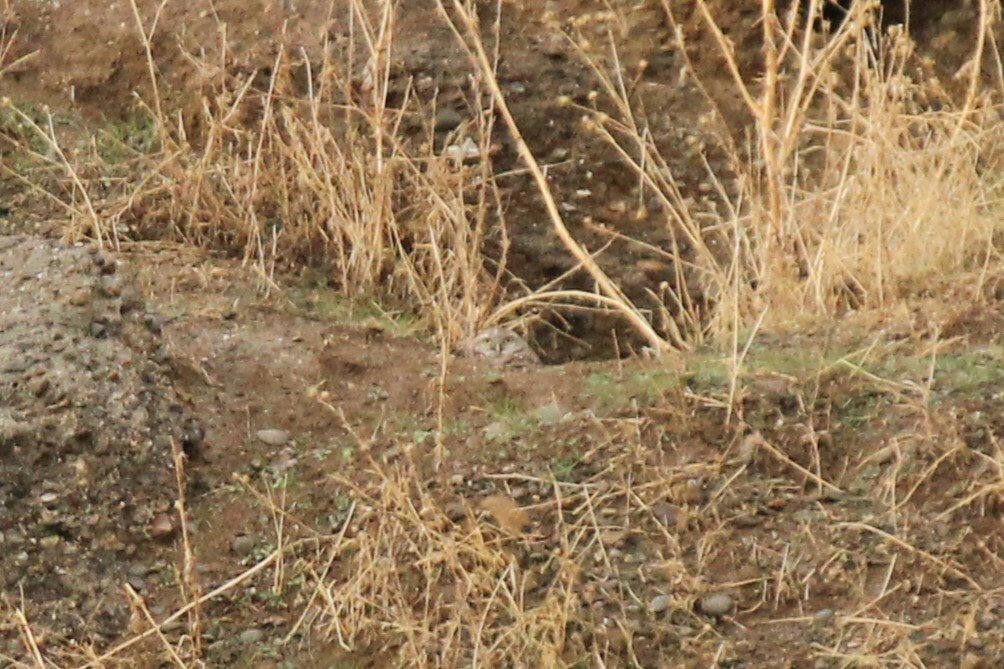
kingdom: Animalia
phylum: Chordata
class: Aves
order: Strigiformes
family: Strigidae
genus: Athene
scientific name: Athene cunicularia
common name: Burrowing owl
